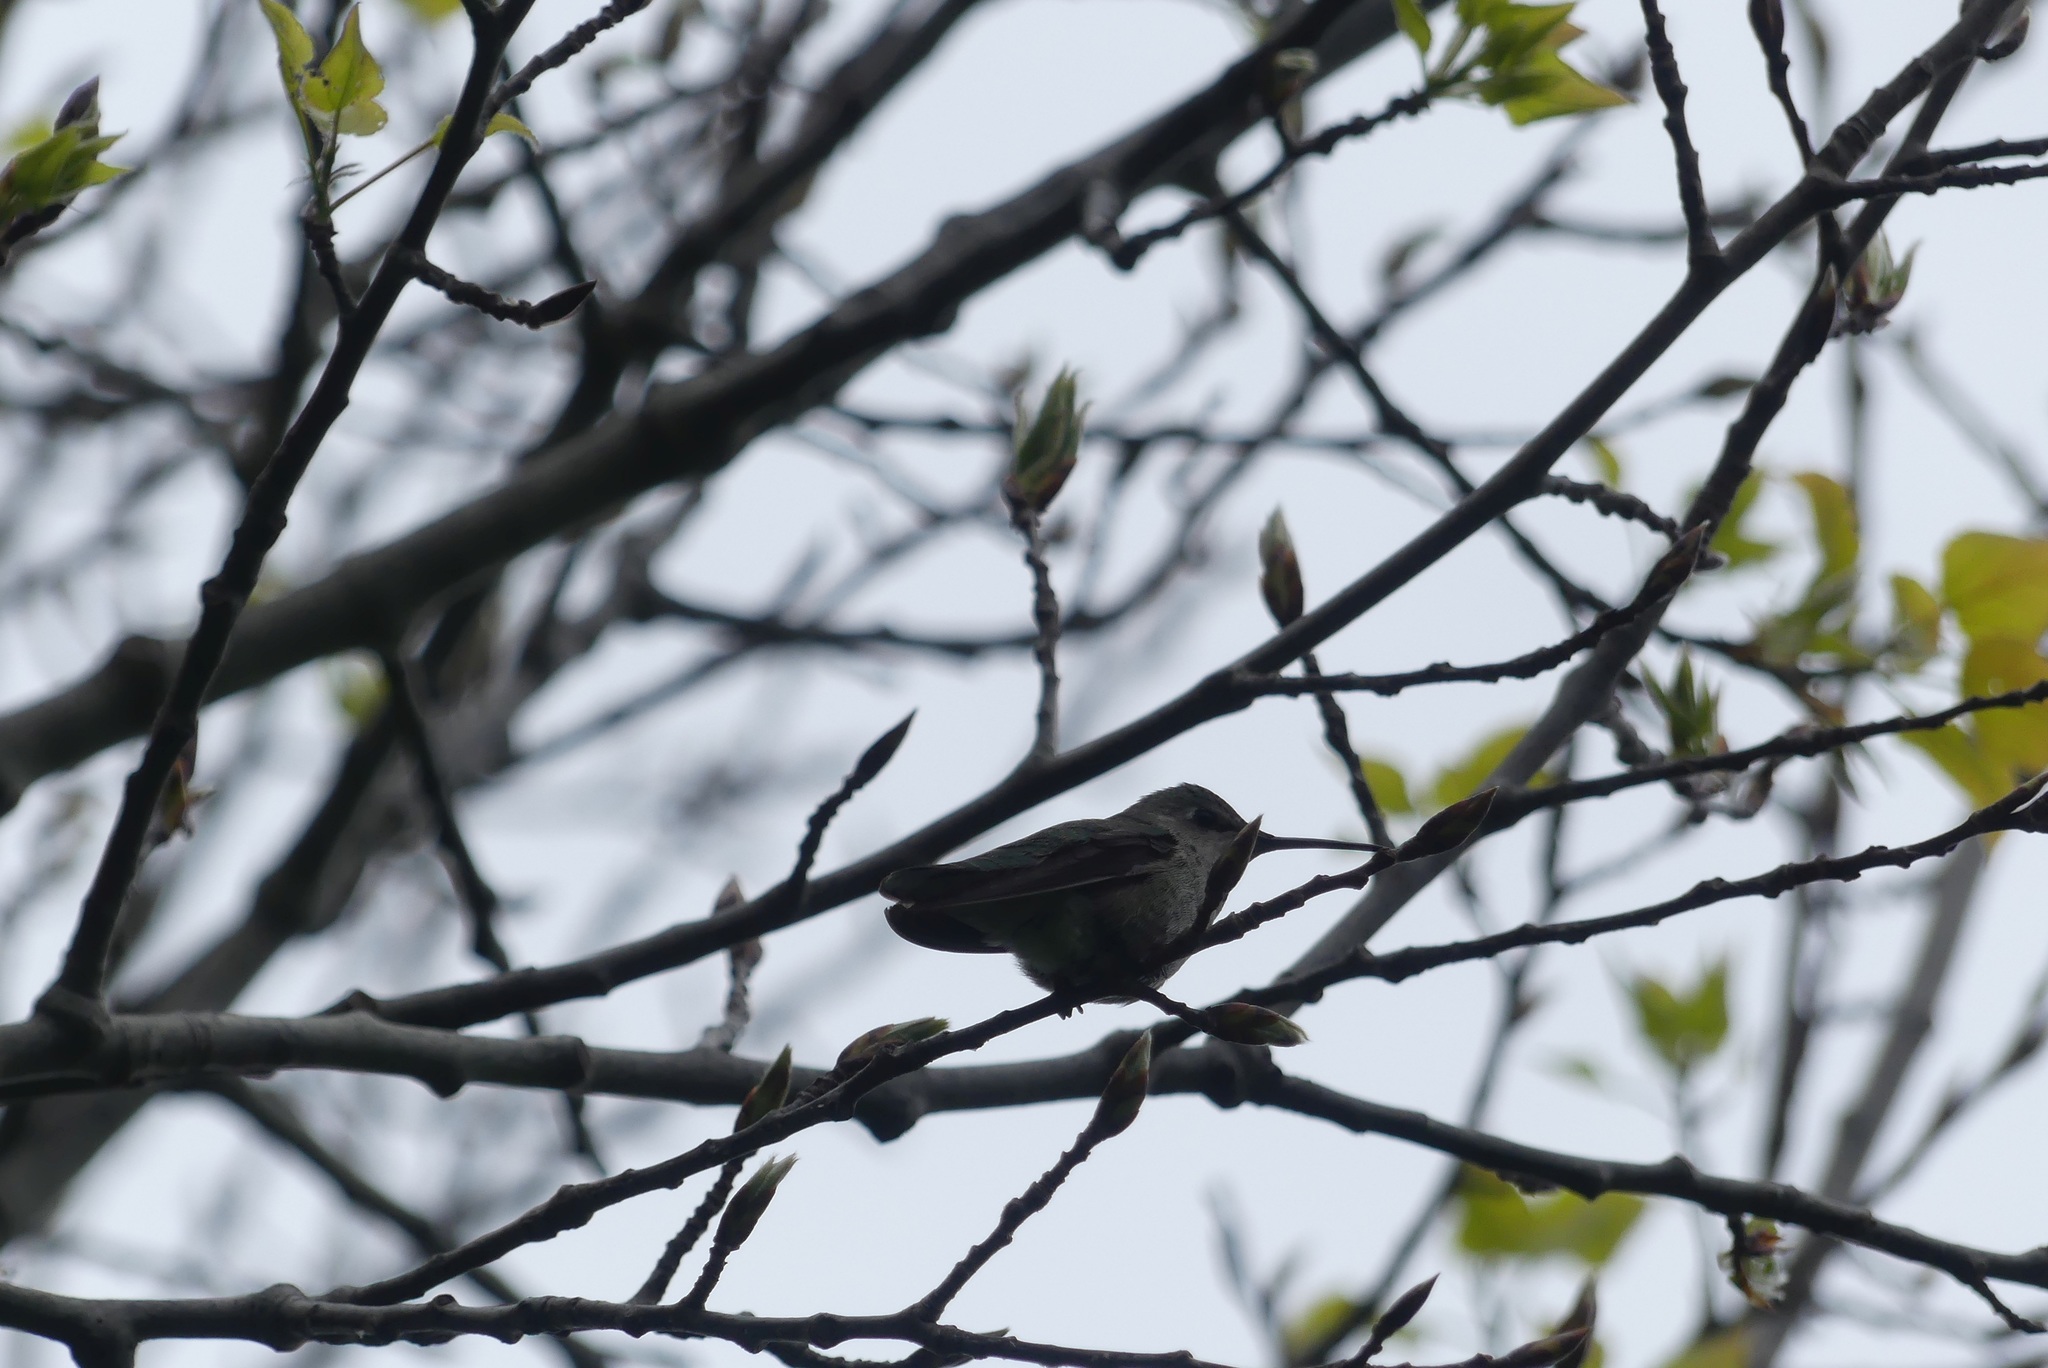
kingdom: Animalia
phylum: Chordata
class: Aves
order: Apodiformes
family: Trochilidae
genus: Calypte
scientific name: Calypte anna
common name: Anna's hummingbird
